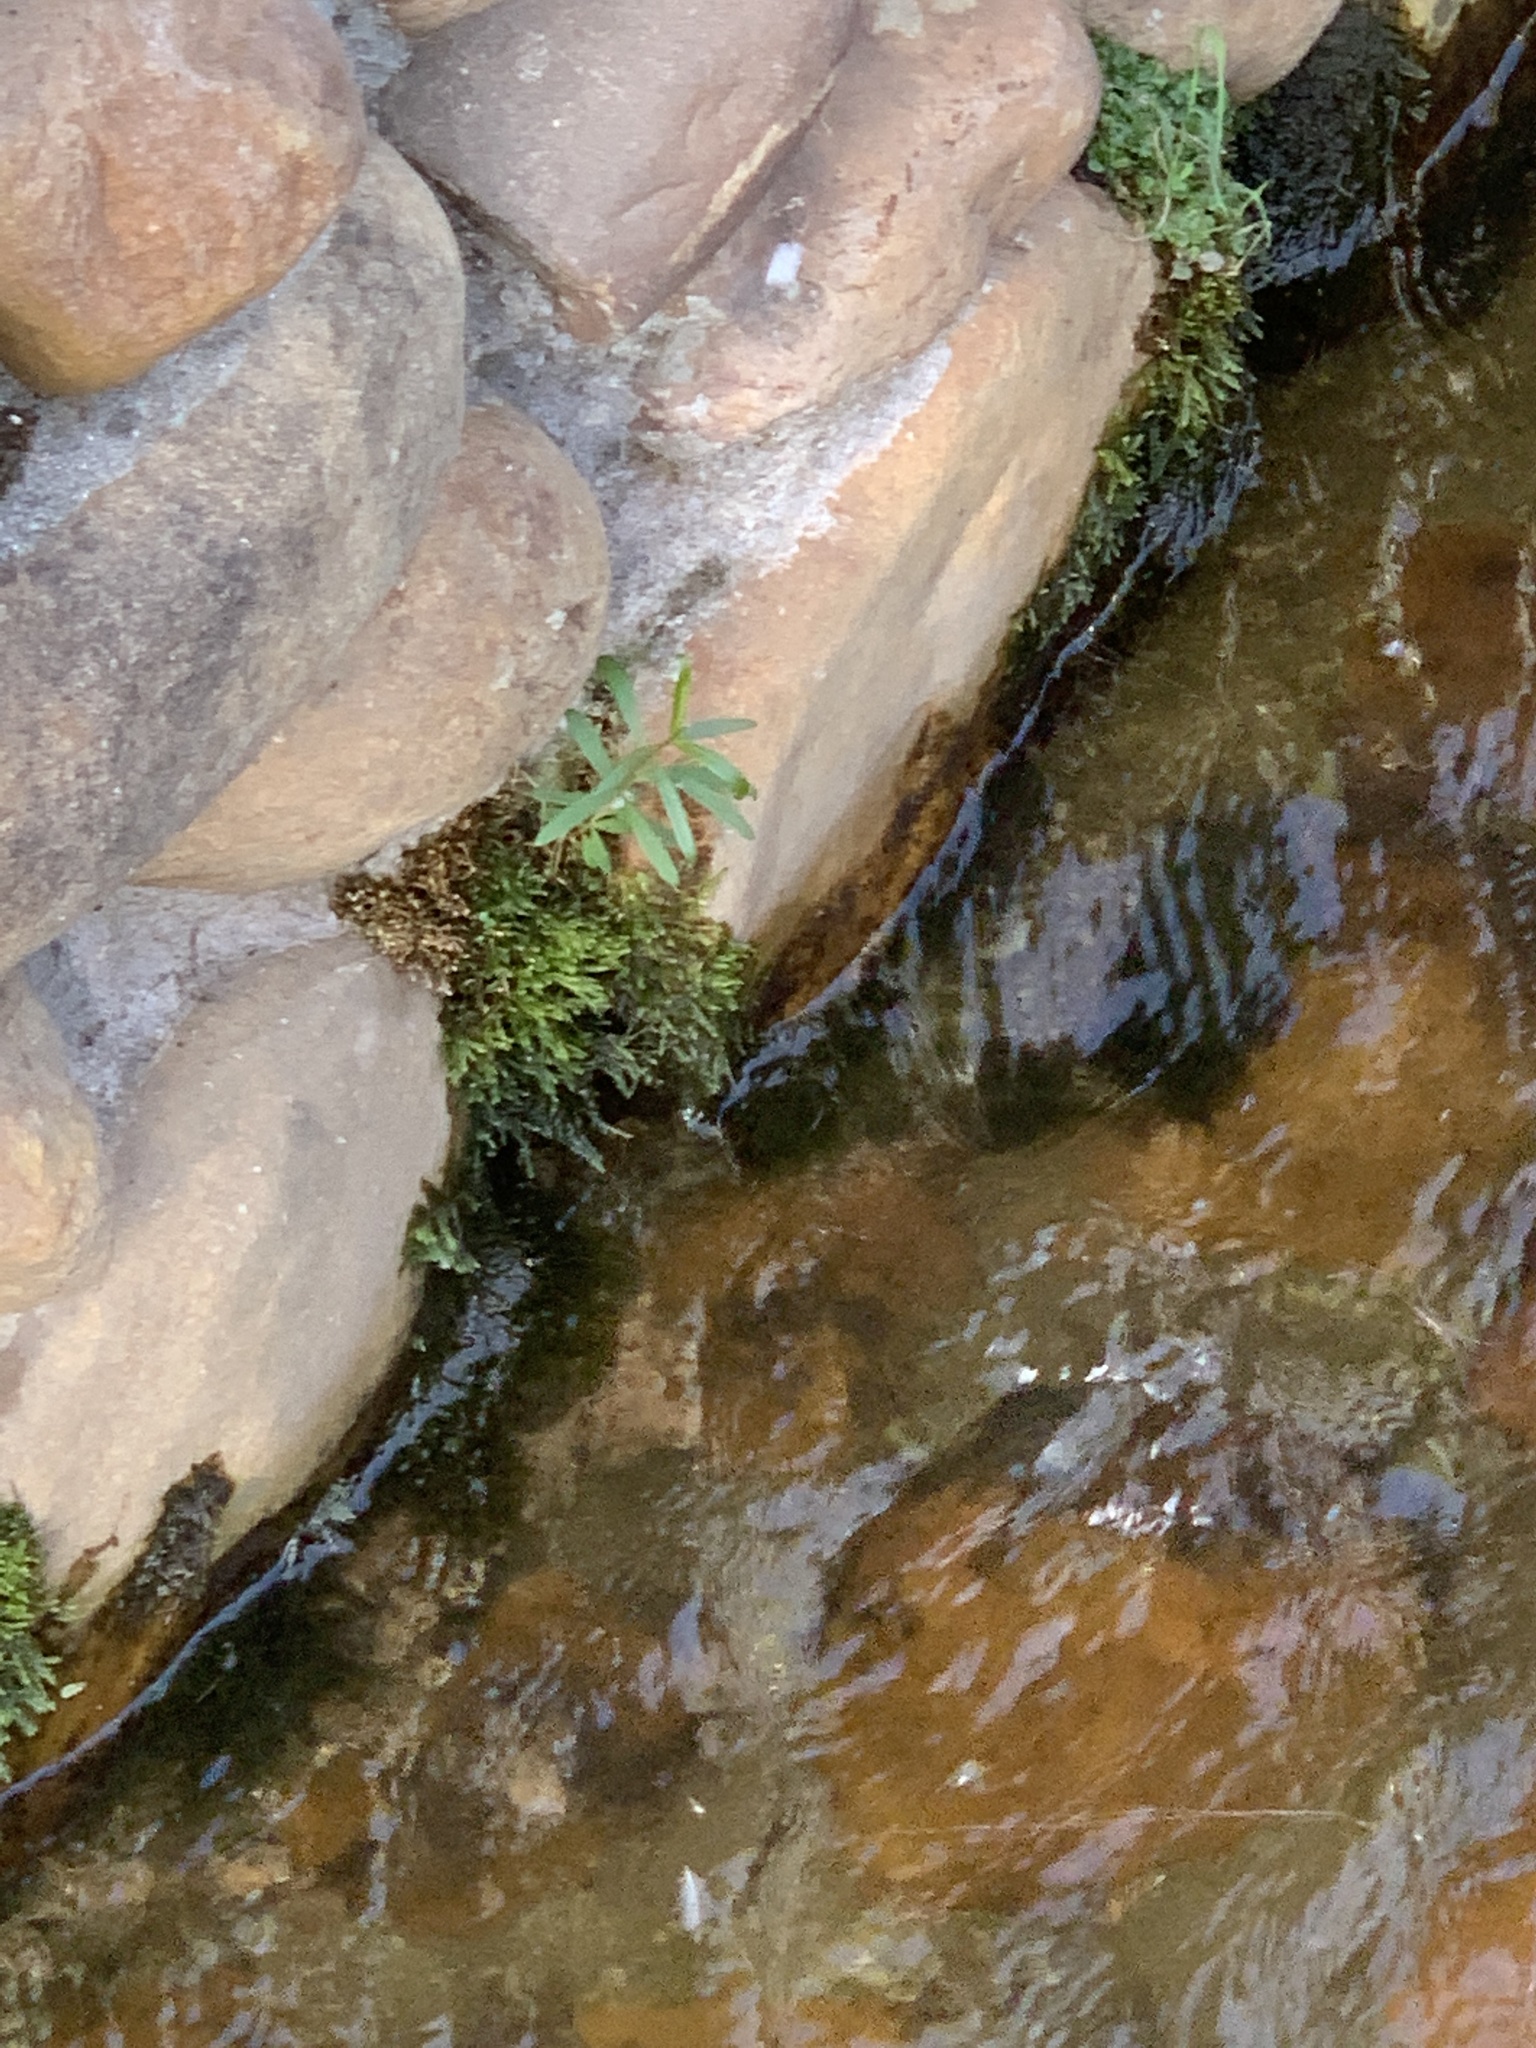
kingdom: Plantae
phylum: Tracheophyta
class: Magnoliopsida
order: Myrtales
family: Myrtaceae
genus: Callistemon
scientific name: Callistemon viminalis
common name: Drooping bottlebrush
